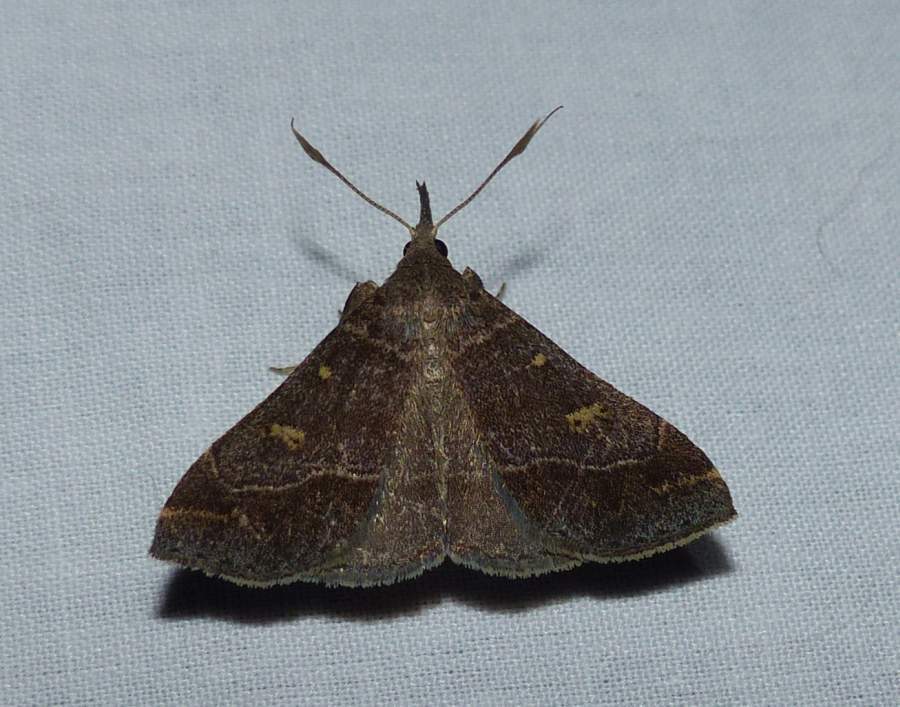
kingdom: Animalia
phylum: Arthropoda
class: Insecta
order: Lepidoptera
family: Erebidae
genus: Renia
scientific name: Renia flavipunctalis
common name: Yellow-spotted renia moth
